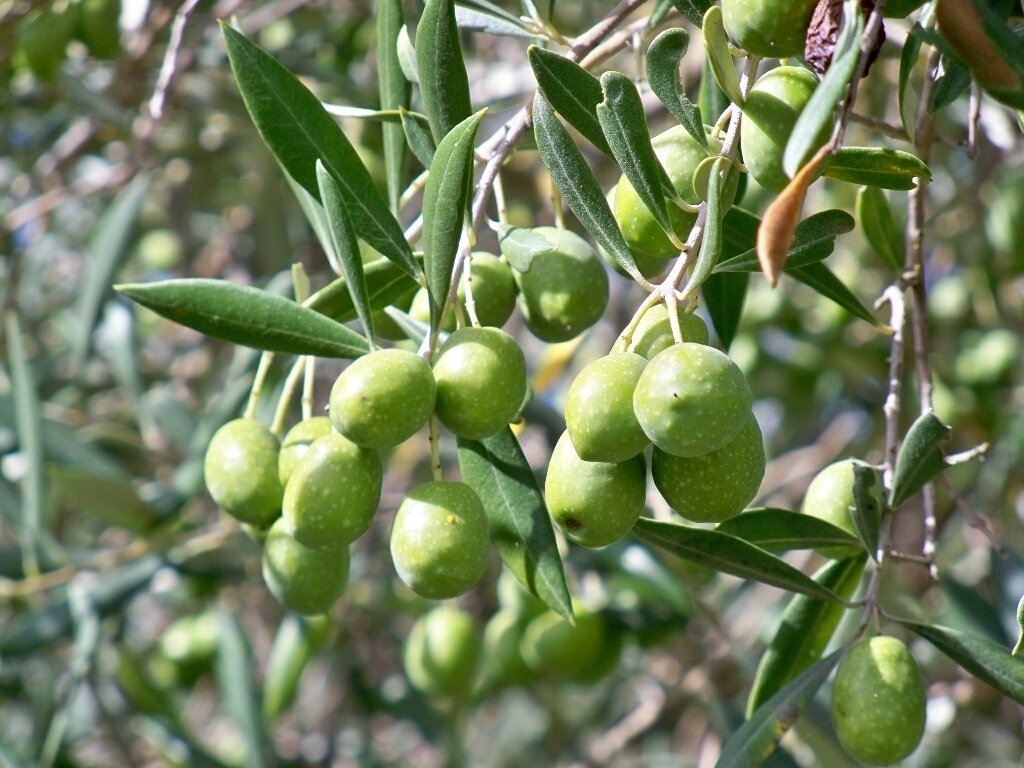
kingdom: Plantae
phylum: Tracheophyta
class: Magnoliopsida
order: Lamiales
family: Oleaceae
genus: Olea
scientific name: Olea europaea
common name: Olive
